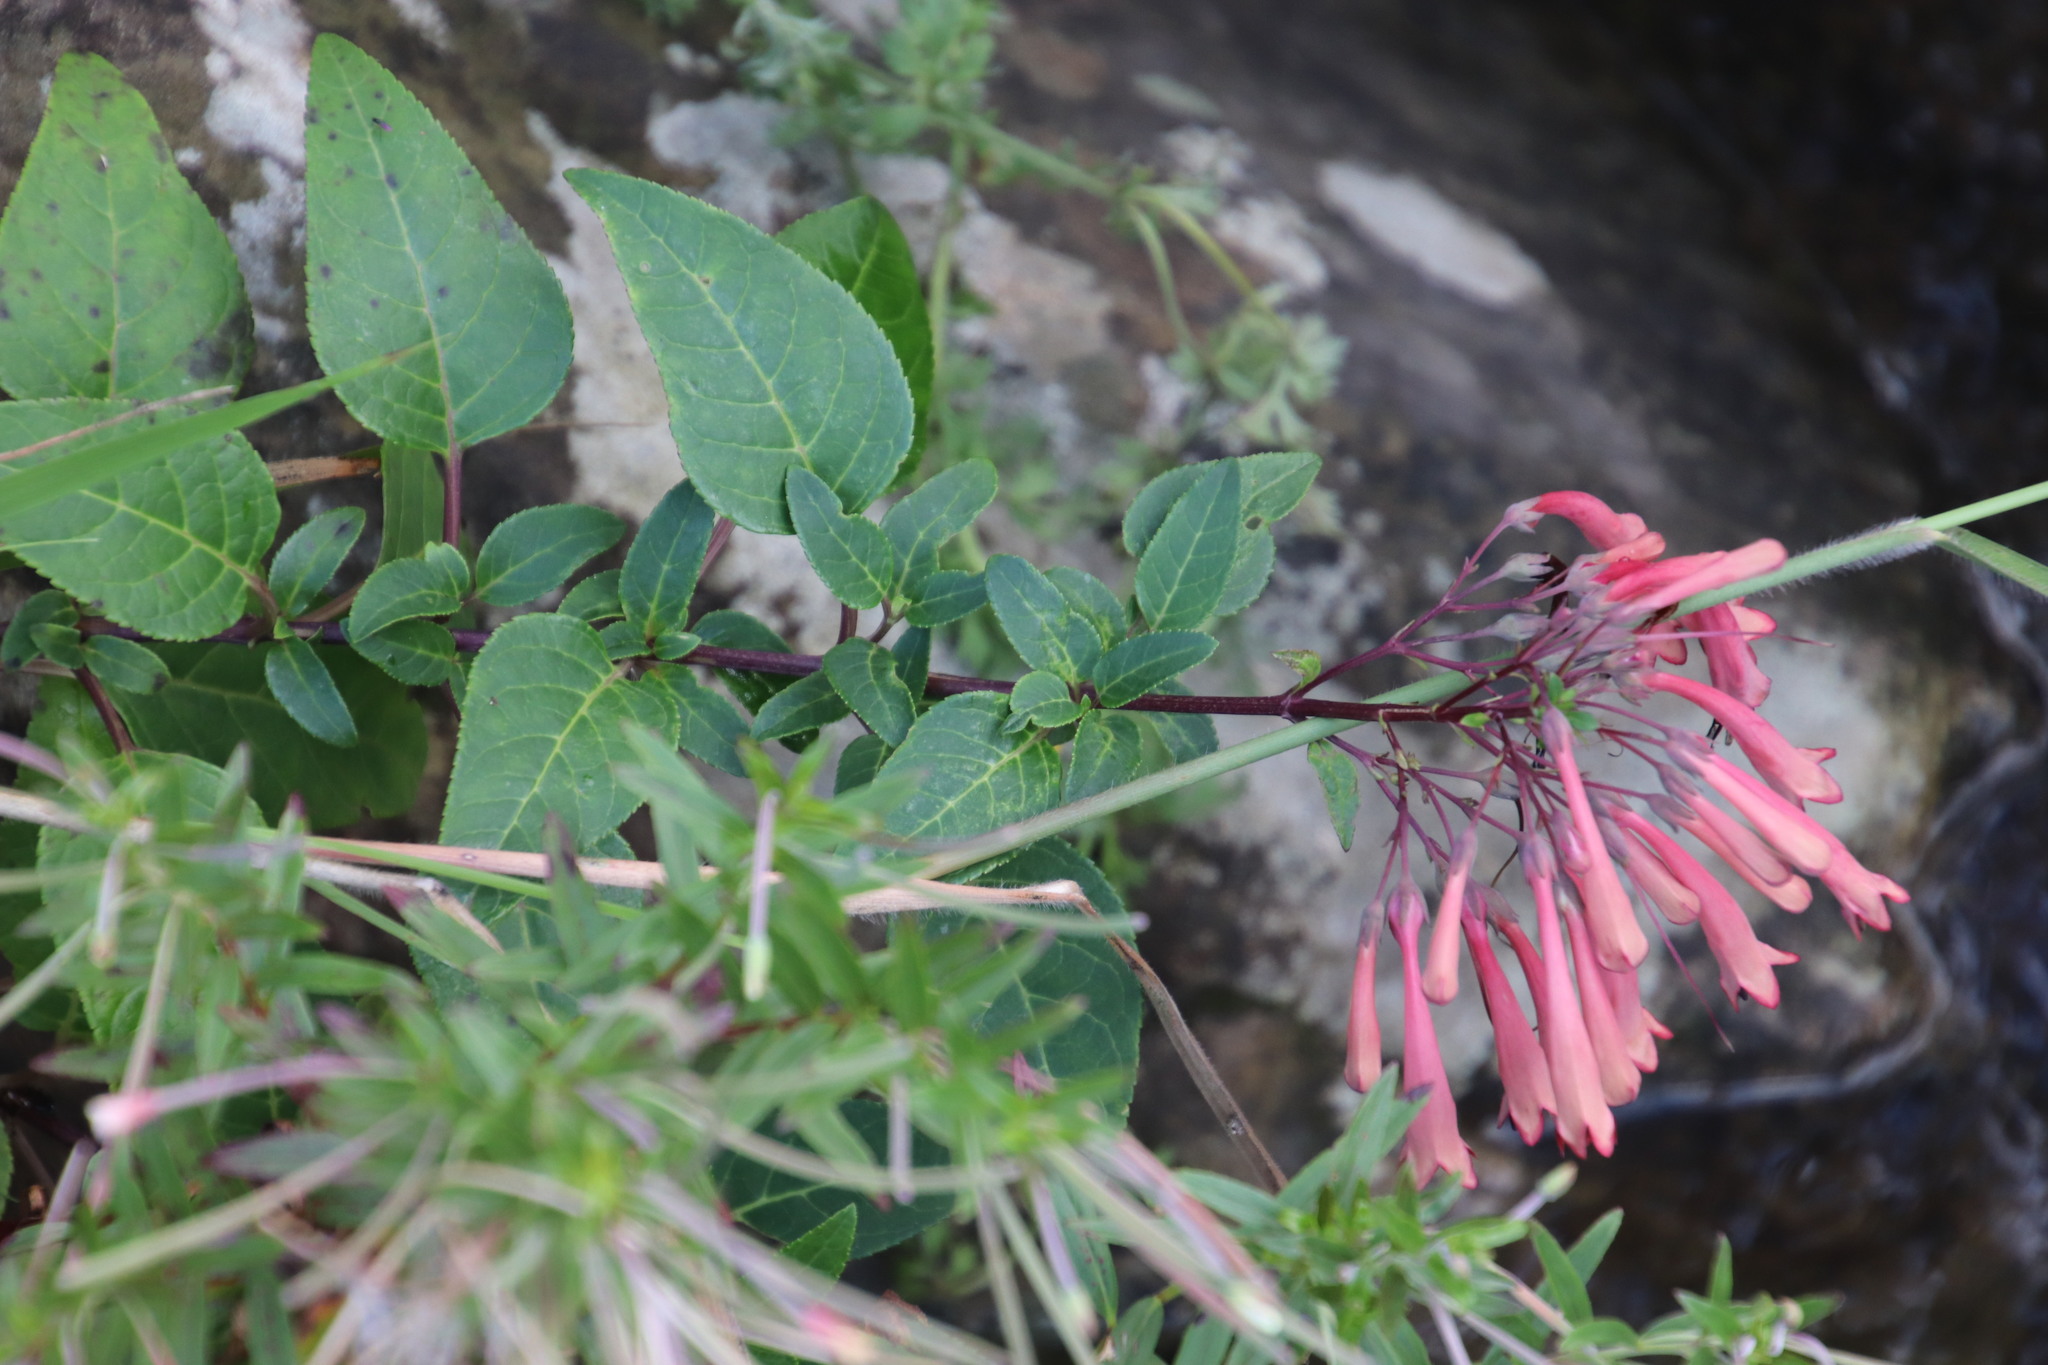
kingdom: Plantae
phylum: Tracheophyta
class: Magnoliopsida
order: Lamiales
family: Scrophulariaceae
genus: Phygelius
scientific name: Phygelius aequalis
